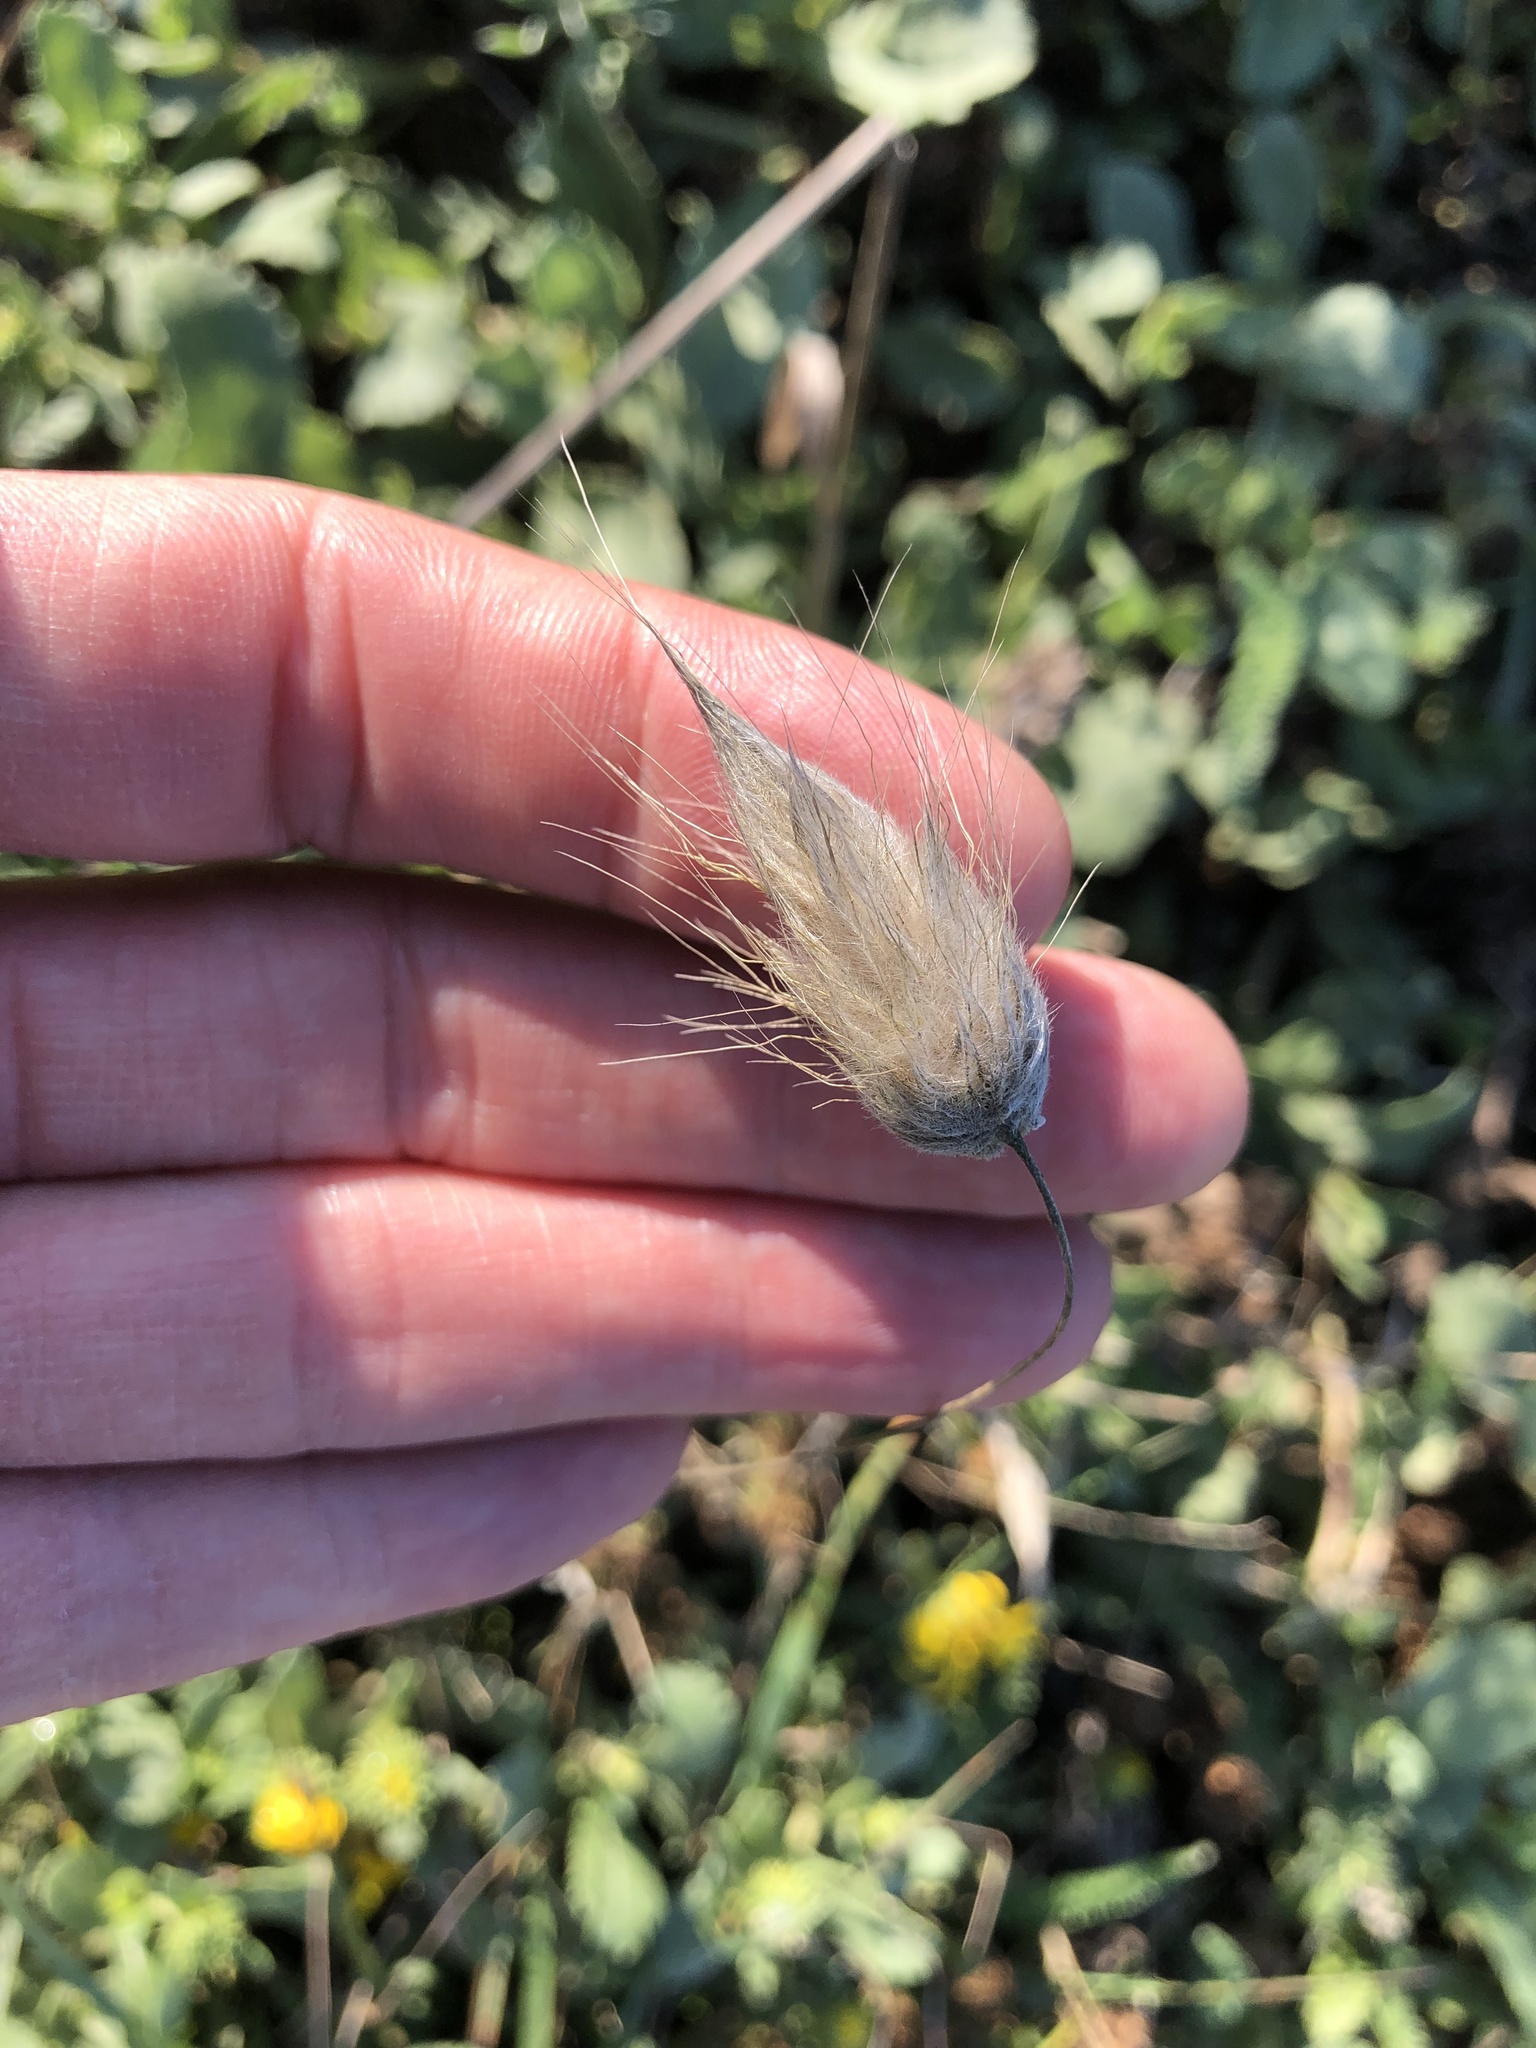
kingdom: Plantae
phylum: Tracheophyta
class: Liliopsida
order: Poales
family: Poaceae
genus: Lagurus
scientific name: Lagurus ovatus
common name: Hare's-tail
